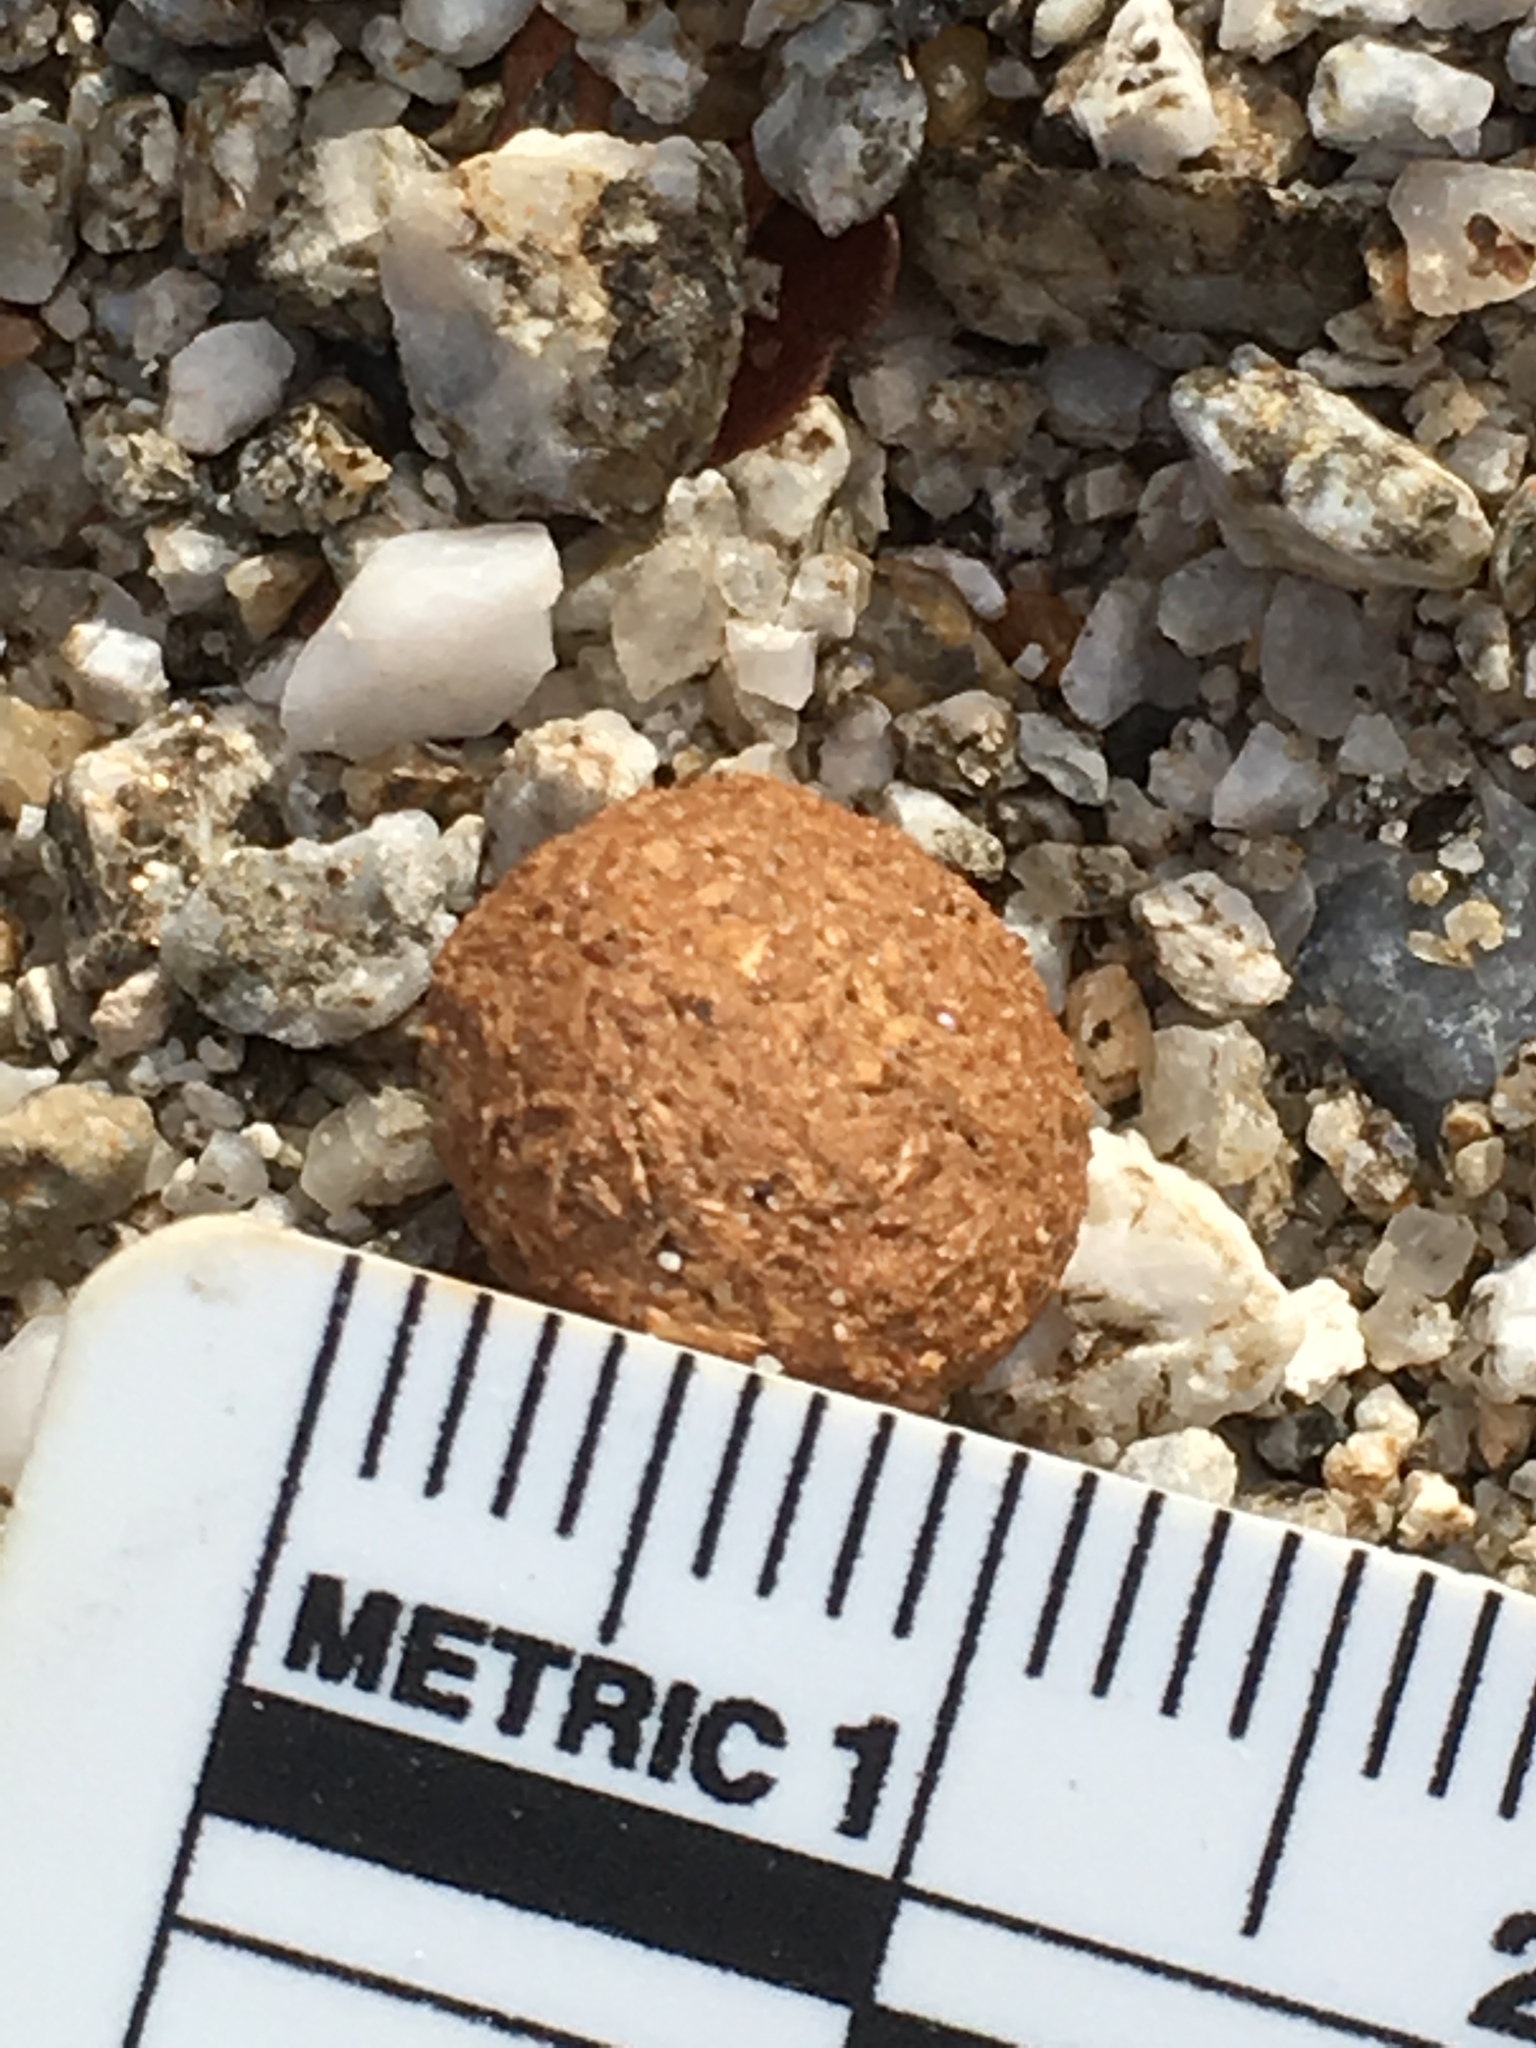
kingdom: Animalia
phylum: Chordata
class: Mammalia
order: Lagomorpha
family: Leporidae
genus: Lepus
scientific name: Lepus californicus
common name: Black-tailed jackrabbit
